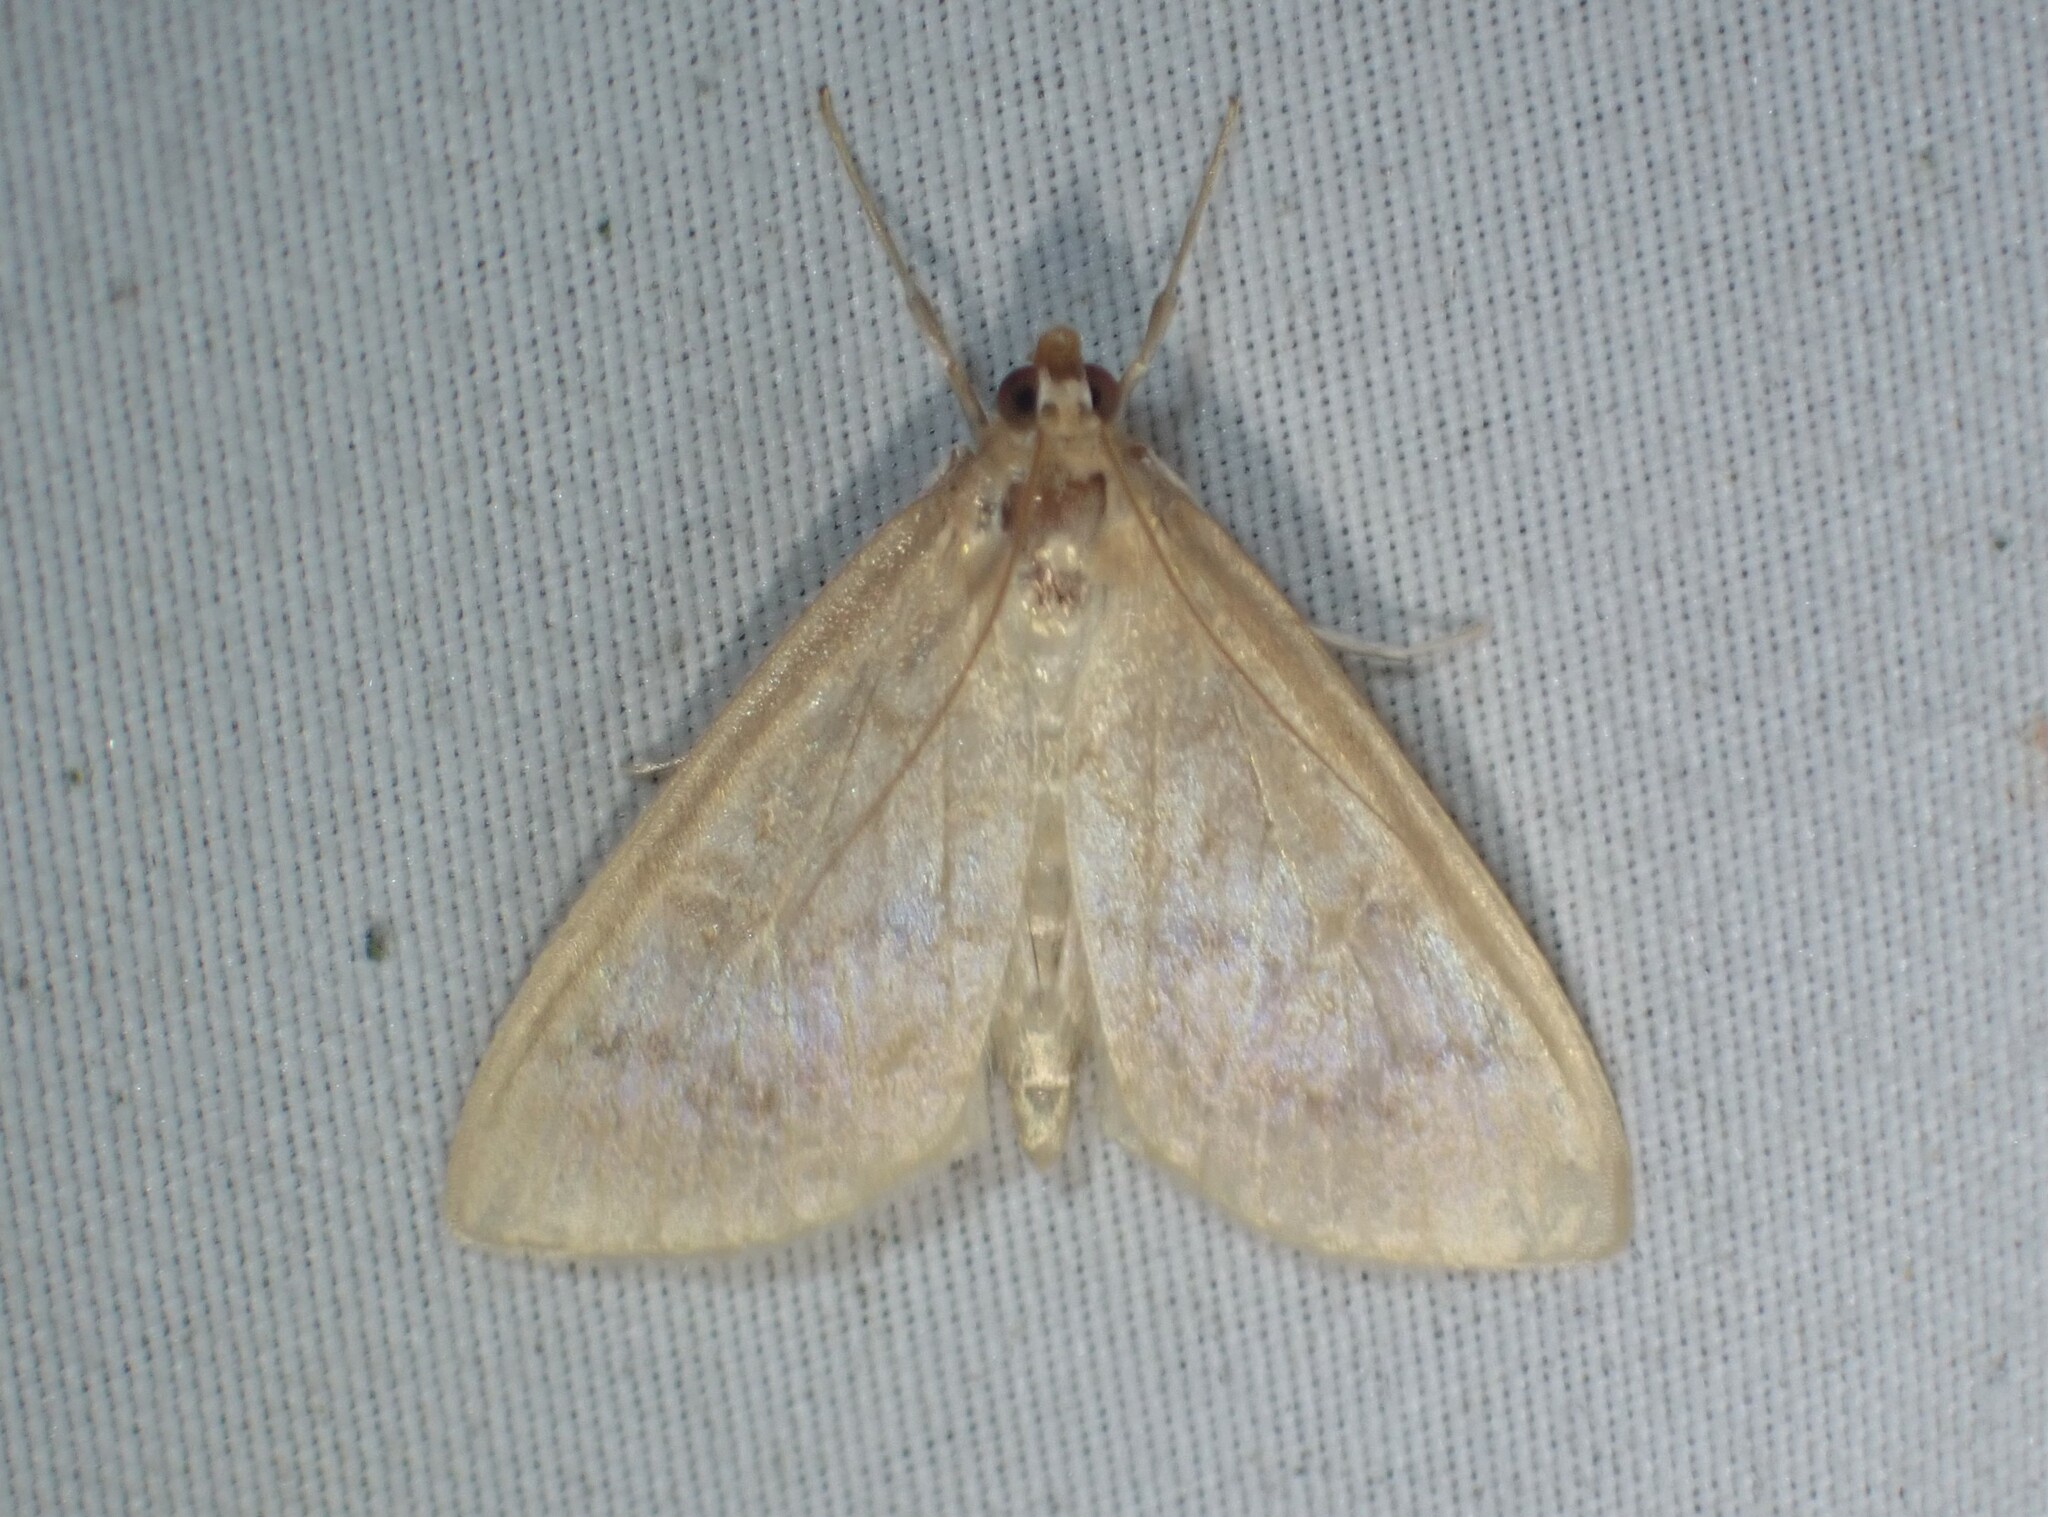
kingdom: Animalia
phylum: Arthropoda
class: Insecta
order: Lepidoptera
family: Crambidae
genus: Anania
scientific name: Anania Framinghamia helvalis
